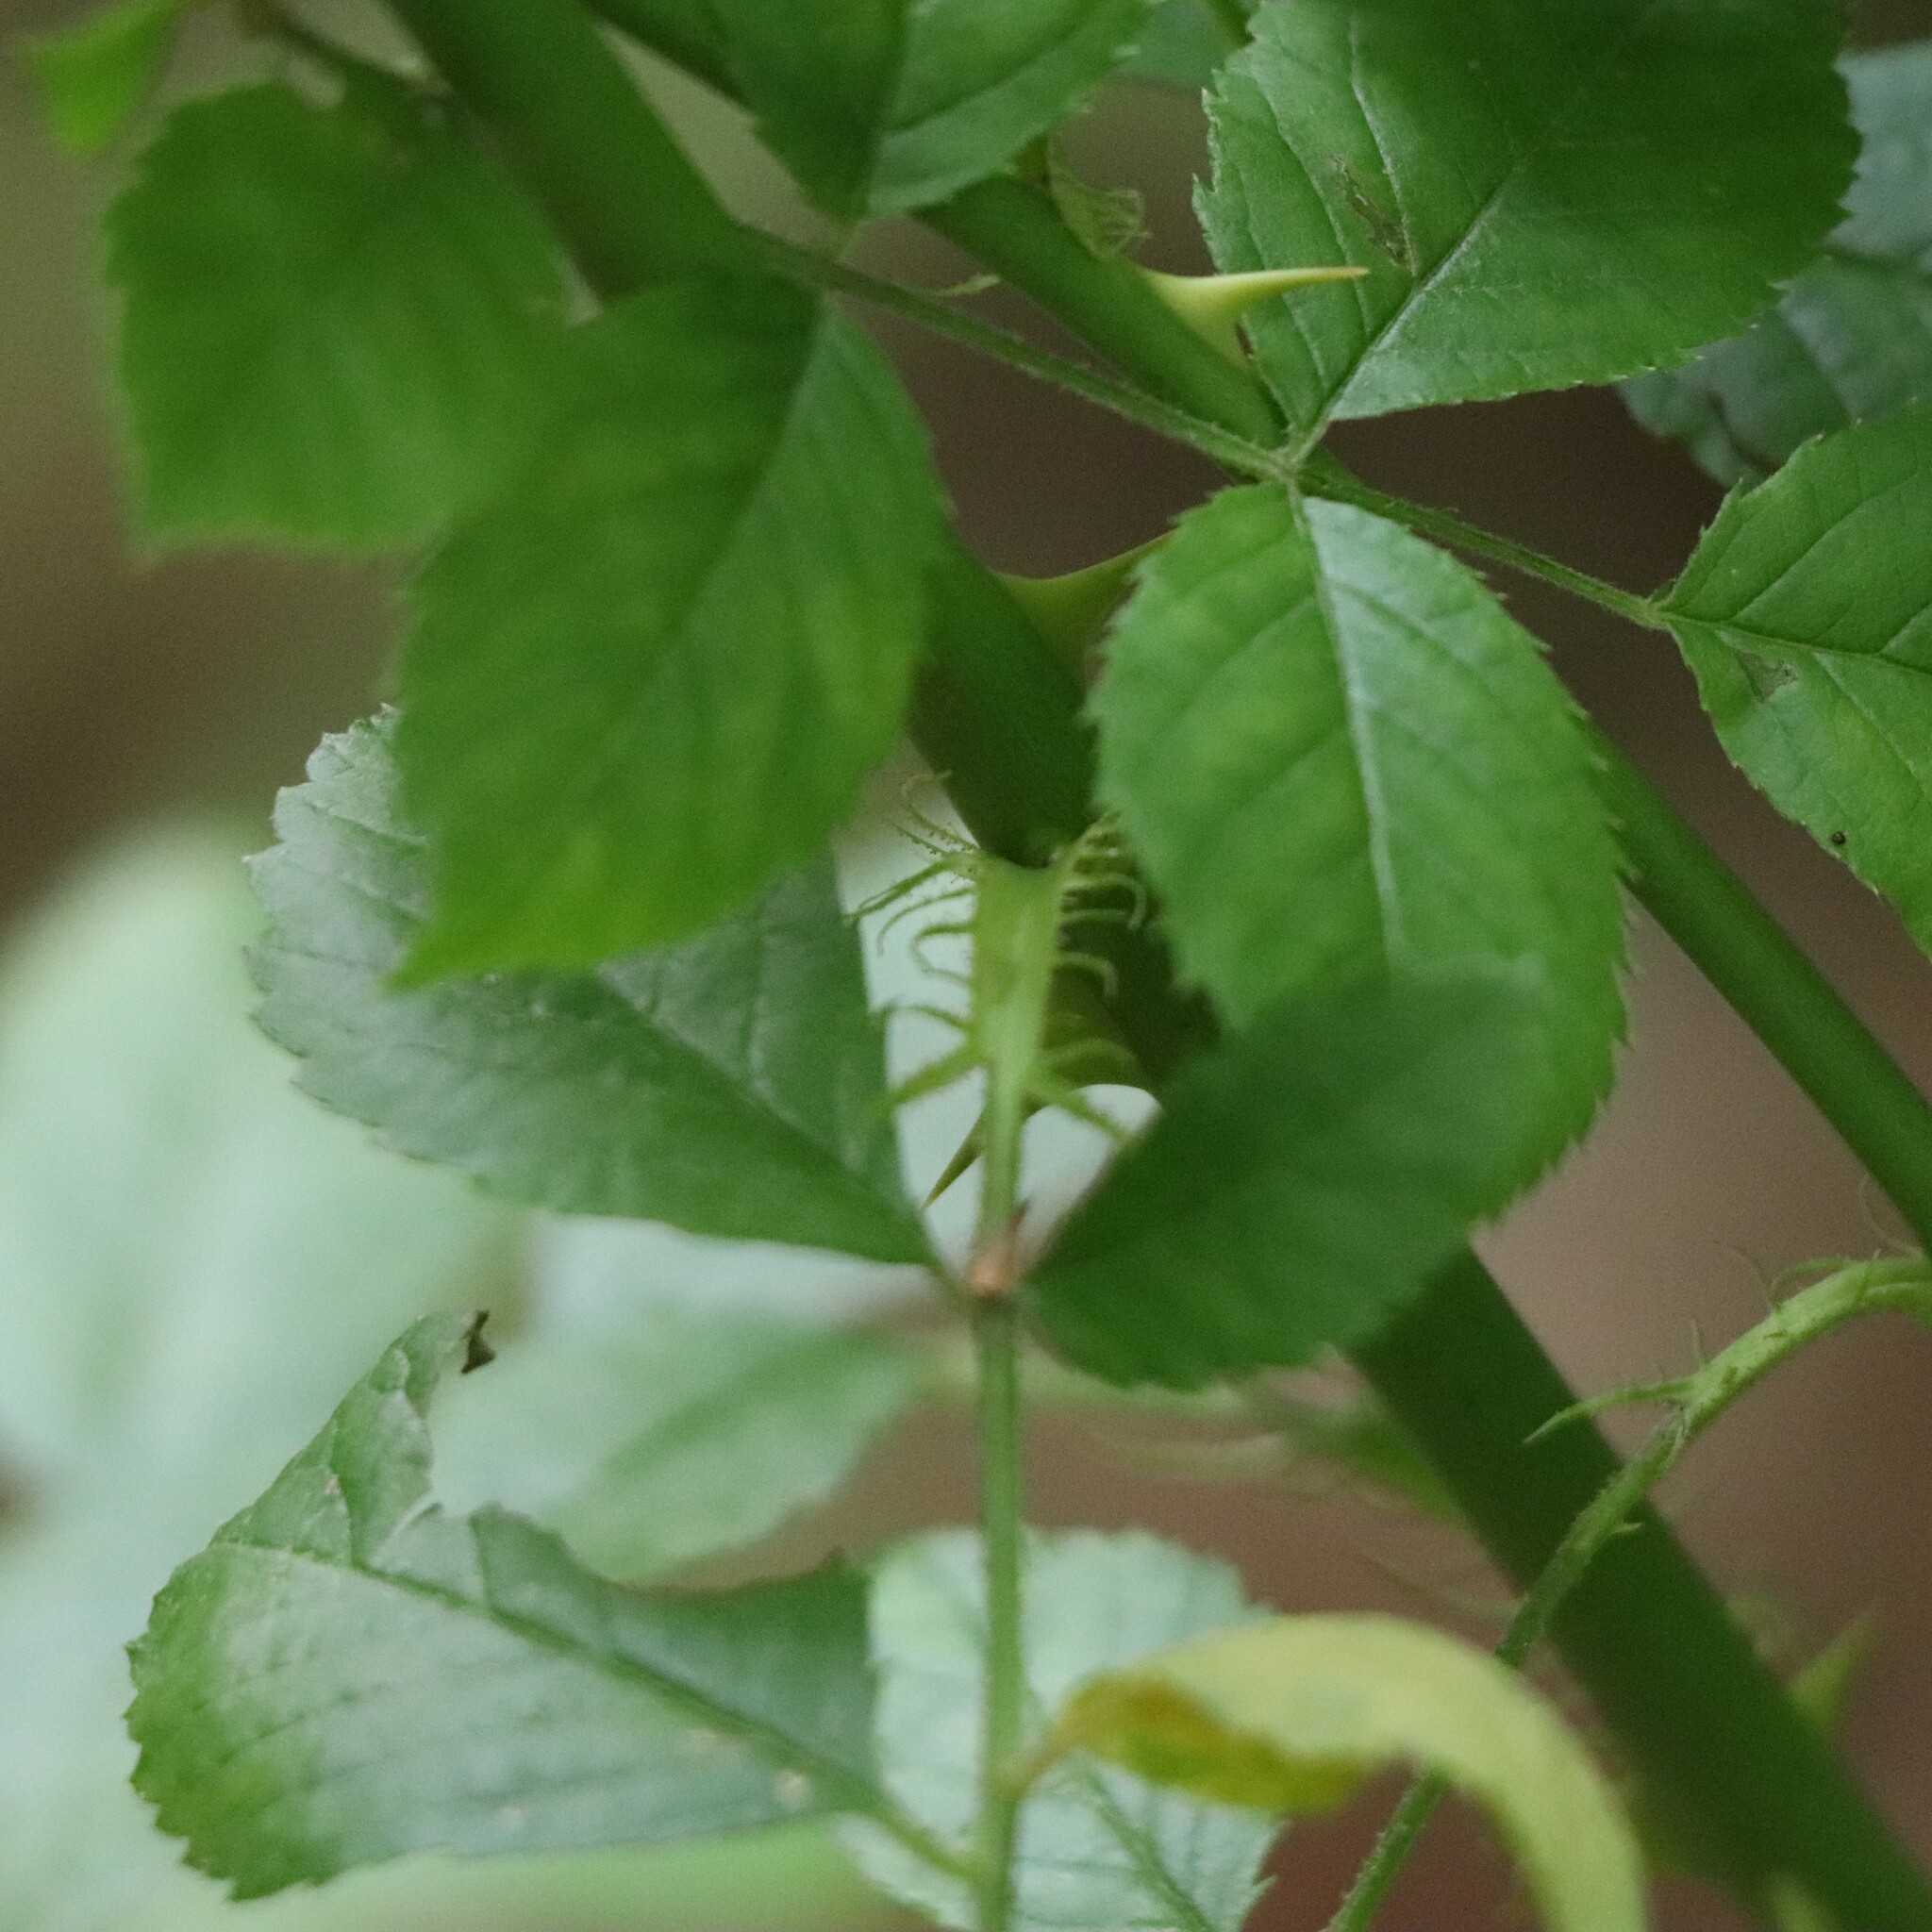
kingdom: Plantae
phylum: Tracheophyta
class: Magnoliopsida
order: Rosales
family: Rosaceae
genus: Rosa
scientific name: Rosa multiflora
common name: Multiflora rose
